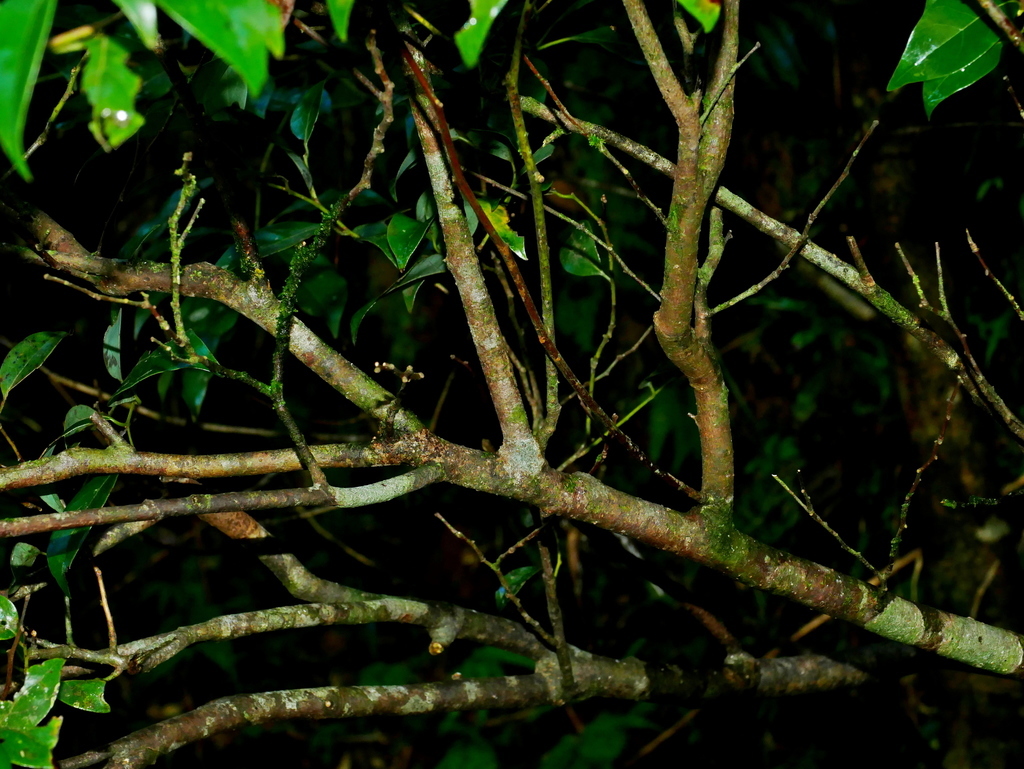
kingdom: Plantae
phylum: Tracheophyta
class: Magnoliopsida
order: Laurales
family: Lauraceae
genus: Lindera
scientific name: Lindera akoensis
